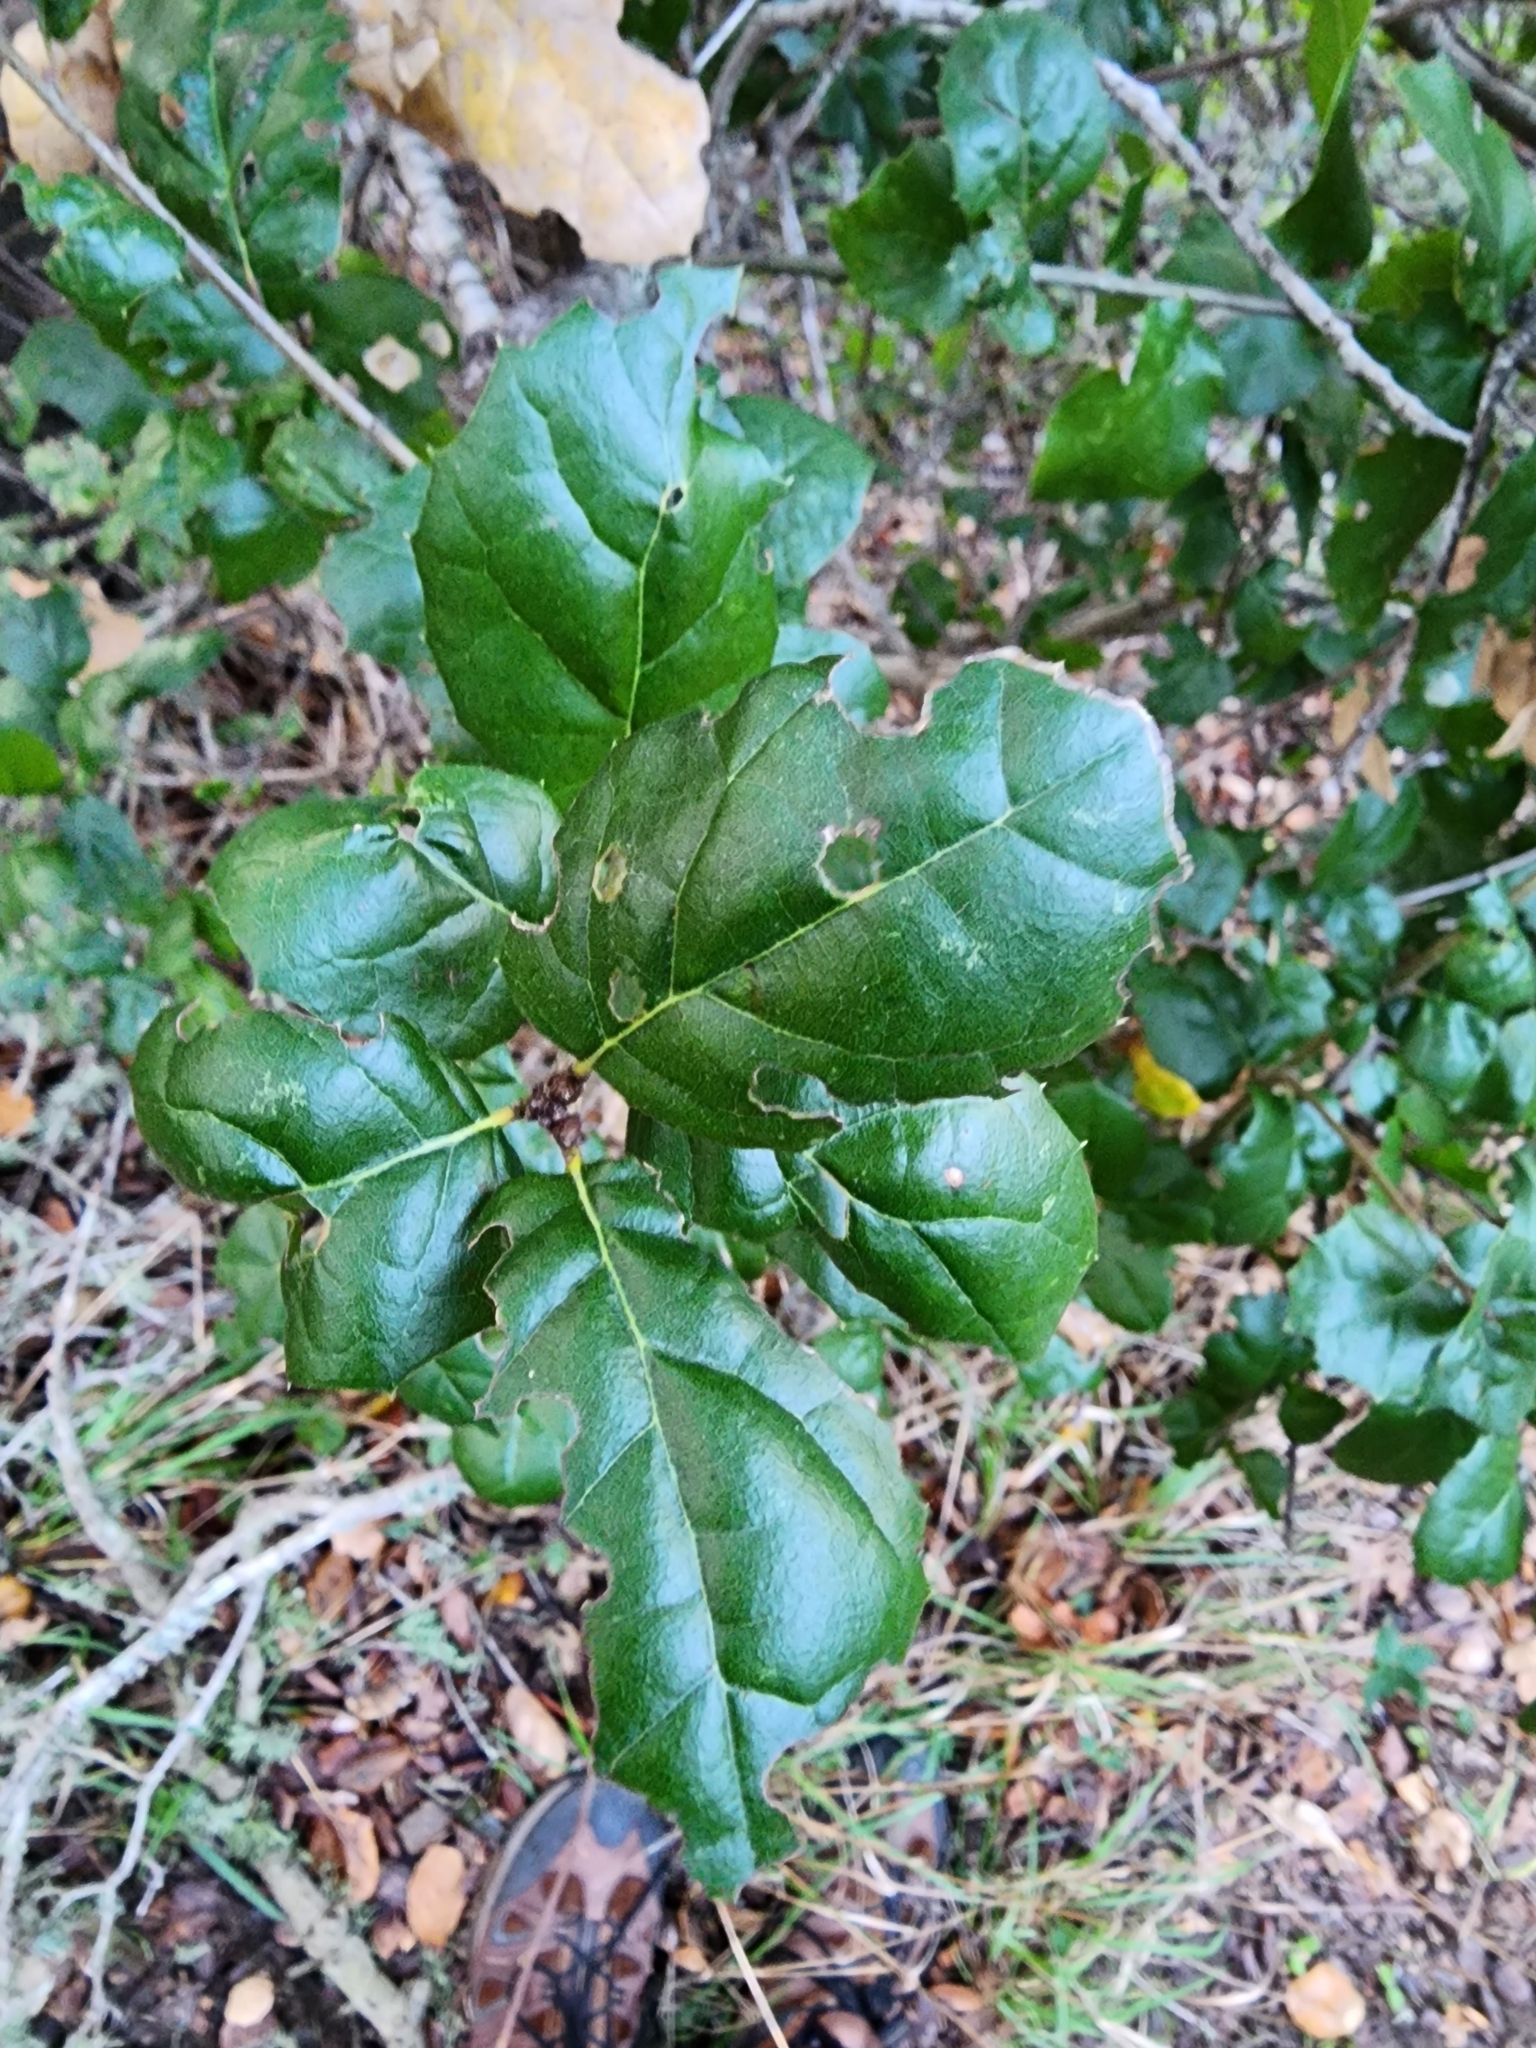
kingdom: Plantae
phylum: Tracheophyta
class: Magnoliopsida
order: Fagales
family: Fagaceae
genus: Quercus
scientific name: Quercus agrifolia
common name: California live oak
